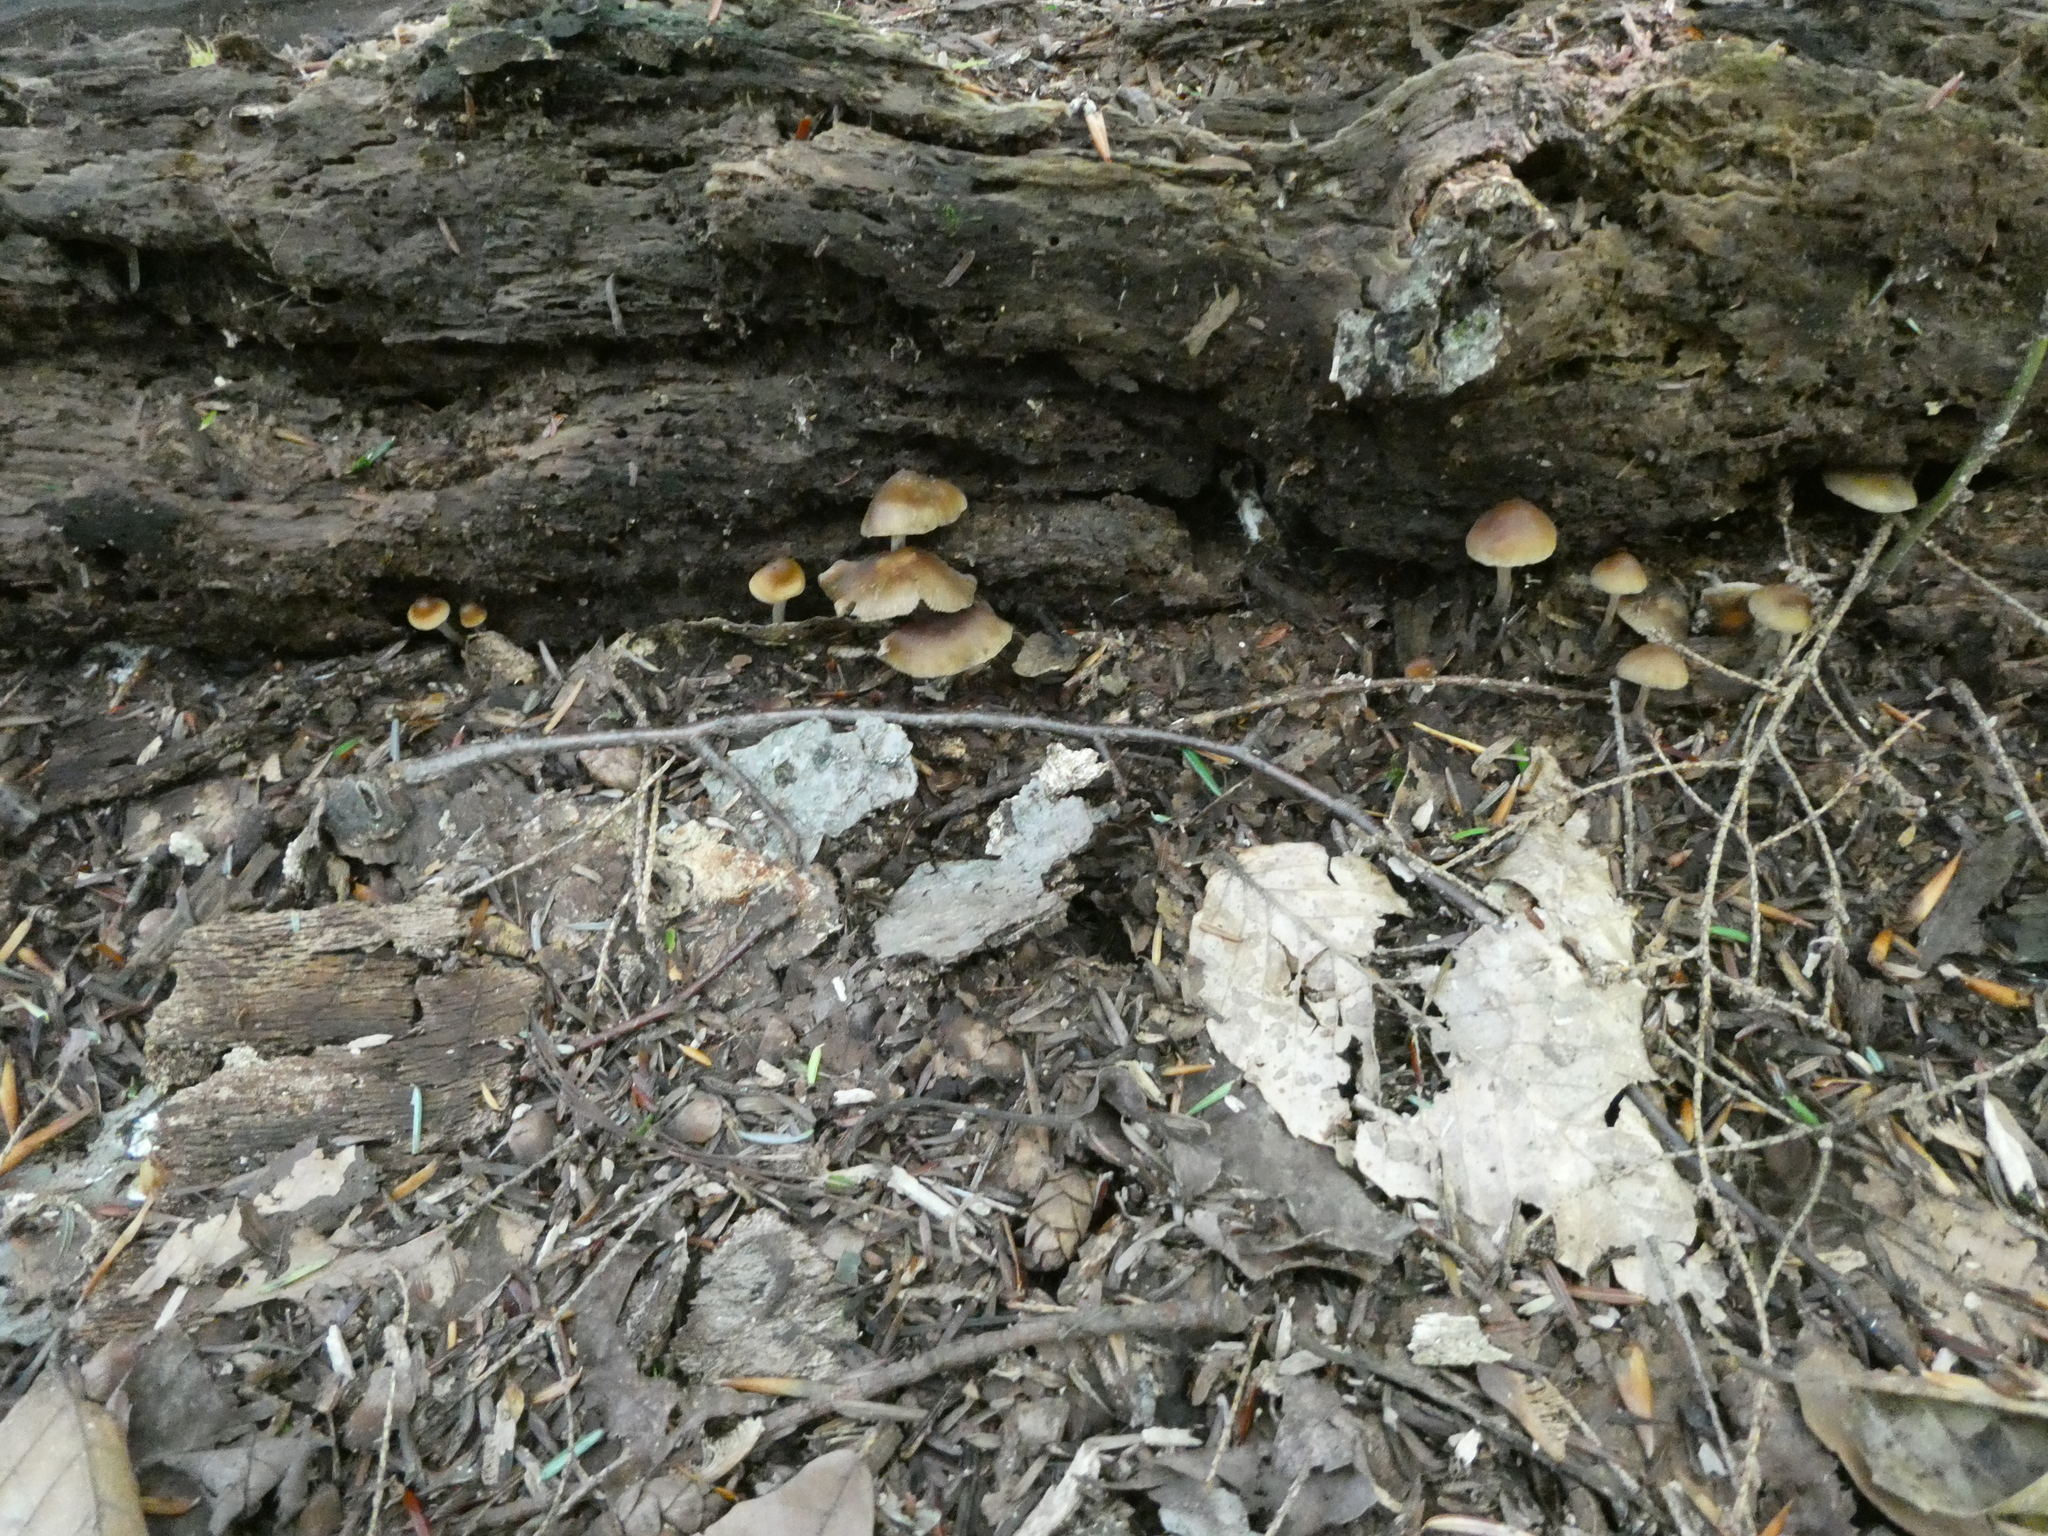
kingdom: Fungi
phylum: Basidiomycota
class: Agaricomycetes
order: Agaricales
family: Hymenogastraceae
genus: Psilocybe
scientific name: Psilocybe caerulipes
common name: Blue-foot
